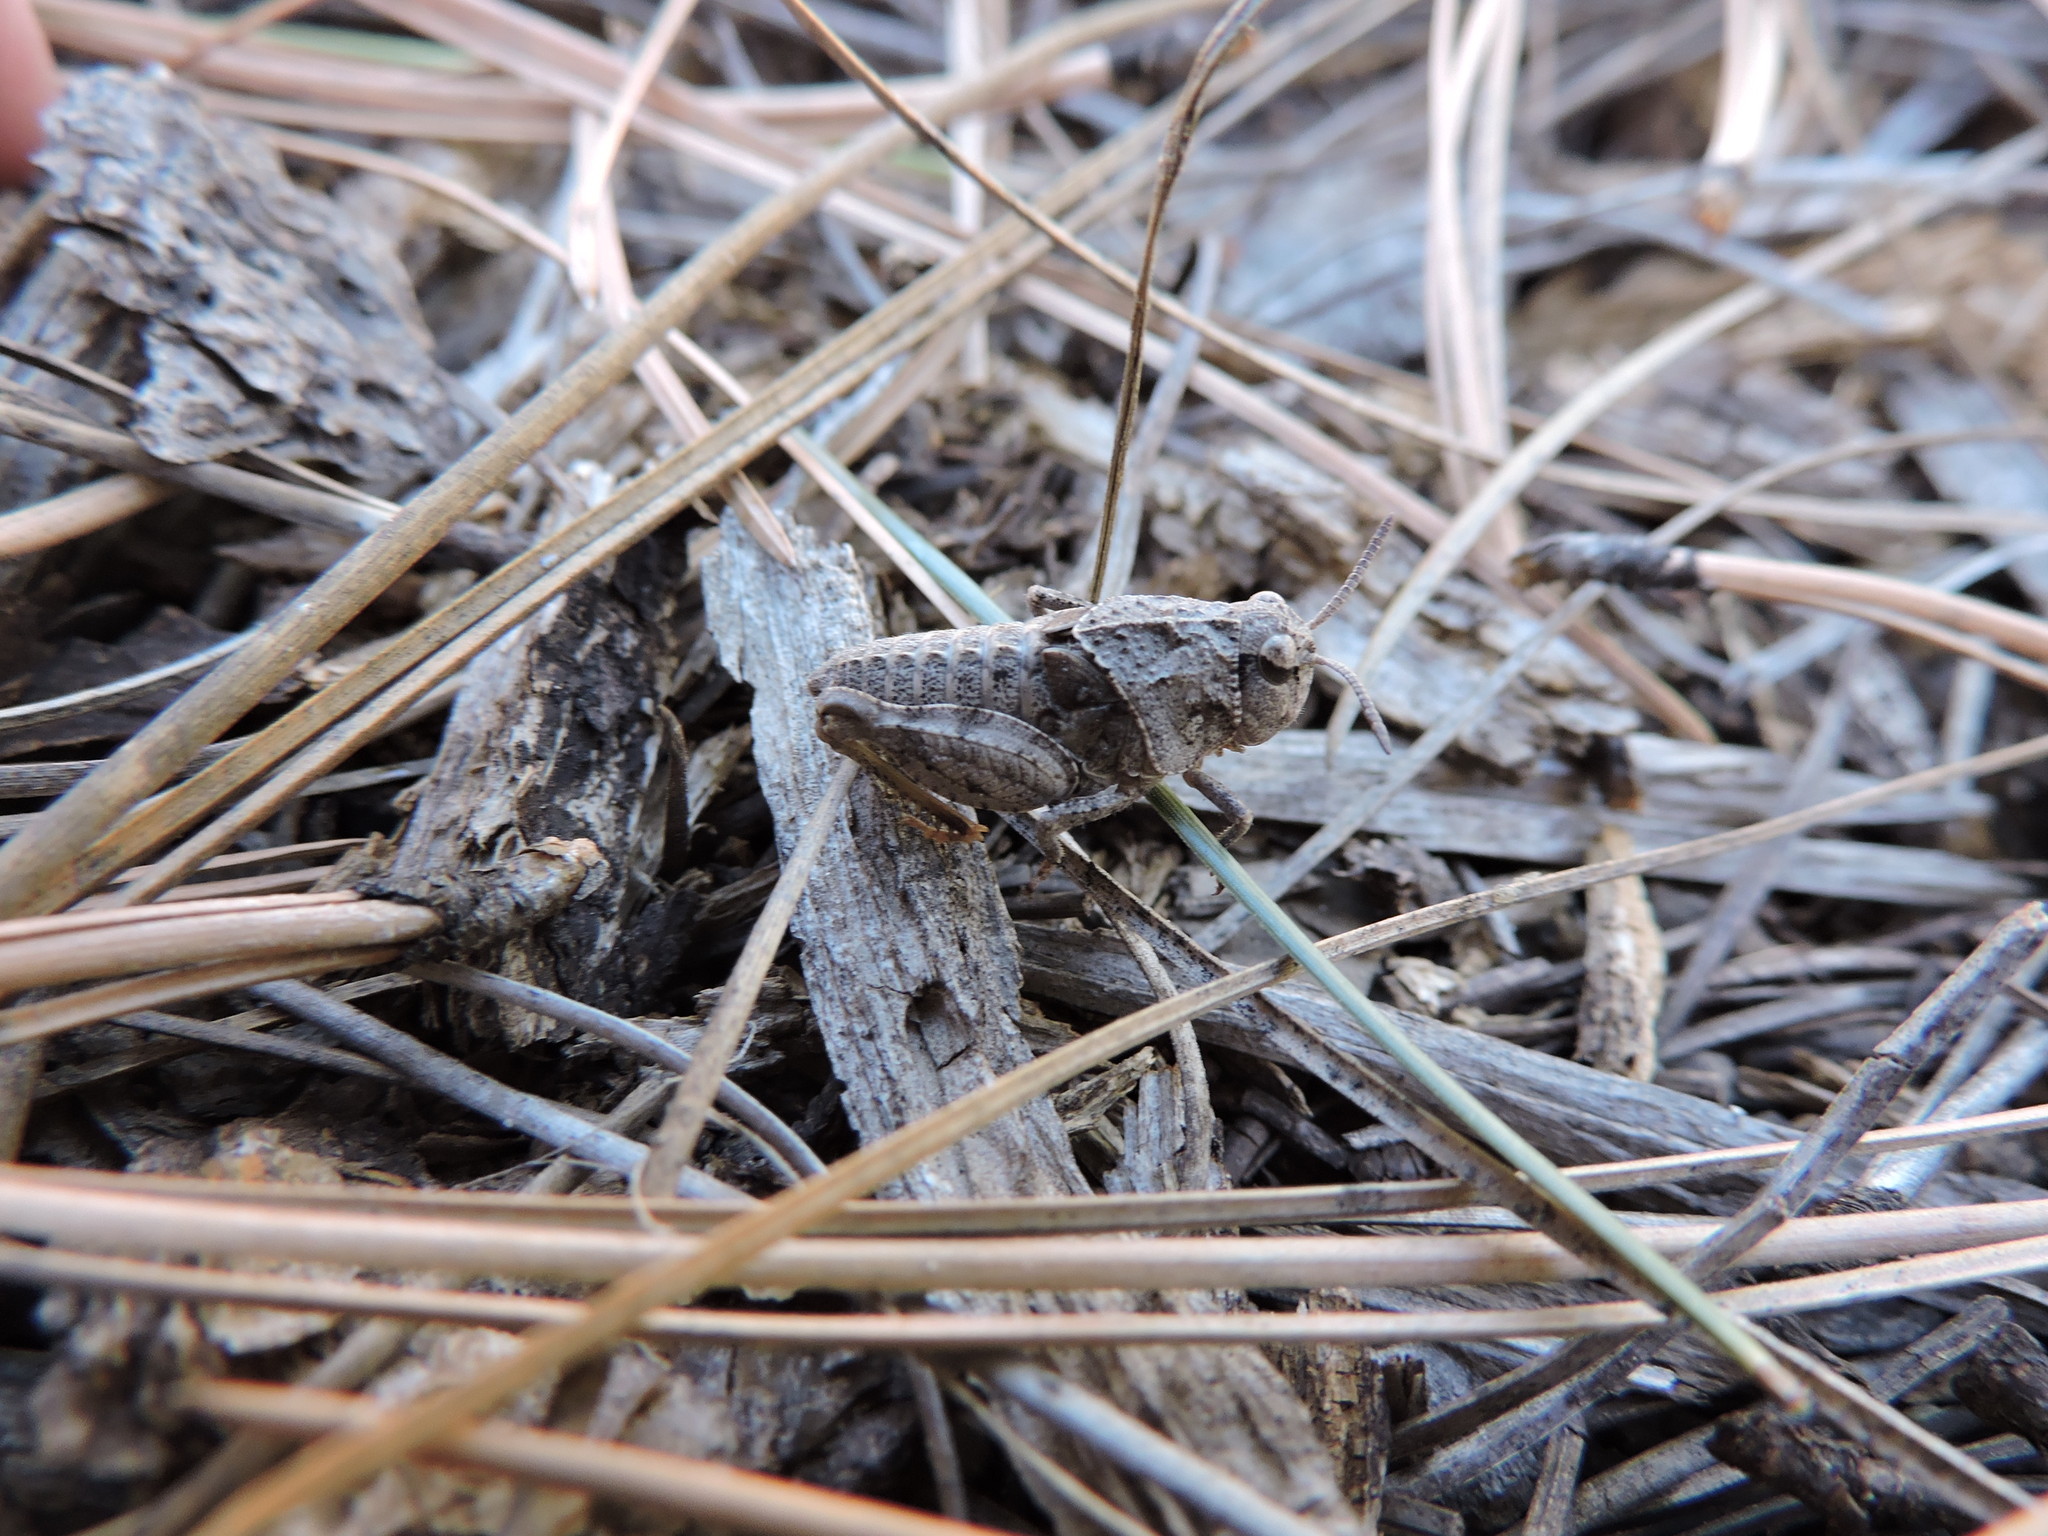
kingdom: Animalia
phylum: Arthropoda
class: Insecta
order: Orthoptera
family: Acrididae
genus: Xanthippus
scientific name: Xanthippus corallipes
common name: Redshanked grasshopper
